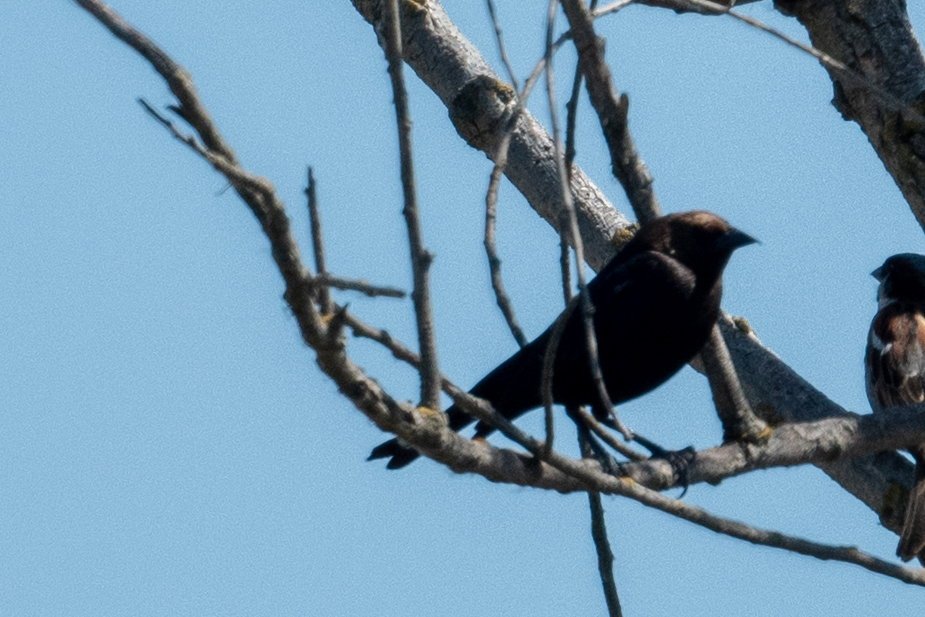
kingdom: Animalia
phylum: Chordata
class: Aves
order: Passeriformes
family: Icteridae
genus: Molothrus
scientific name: Molothrus ater
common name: Brown-headed cowbird
